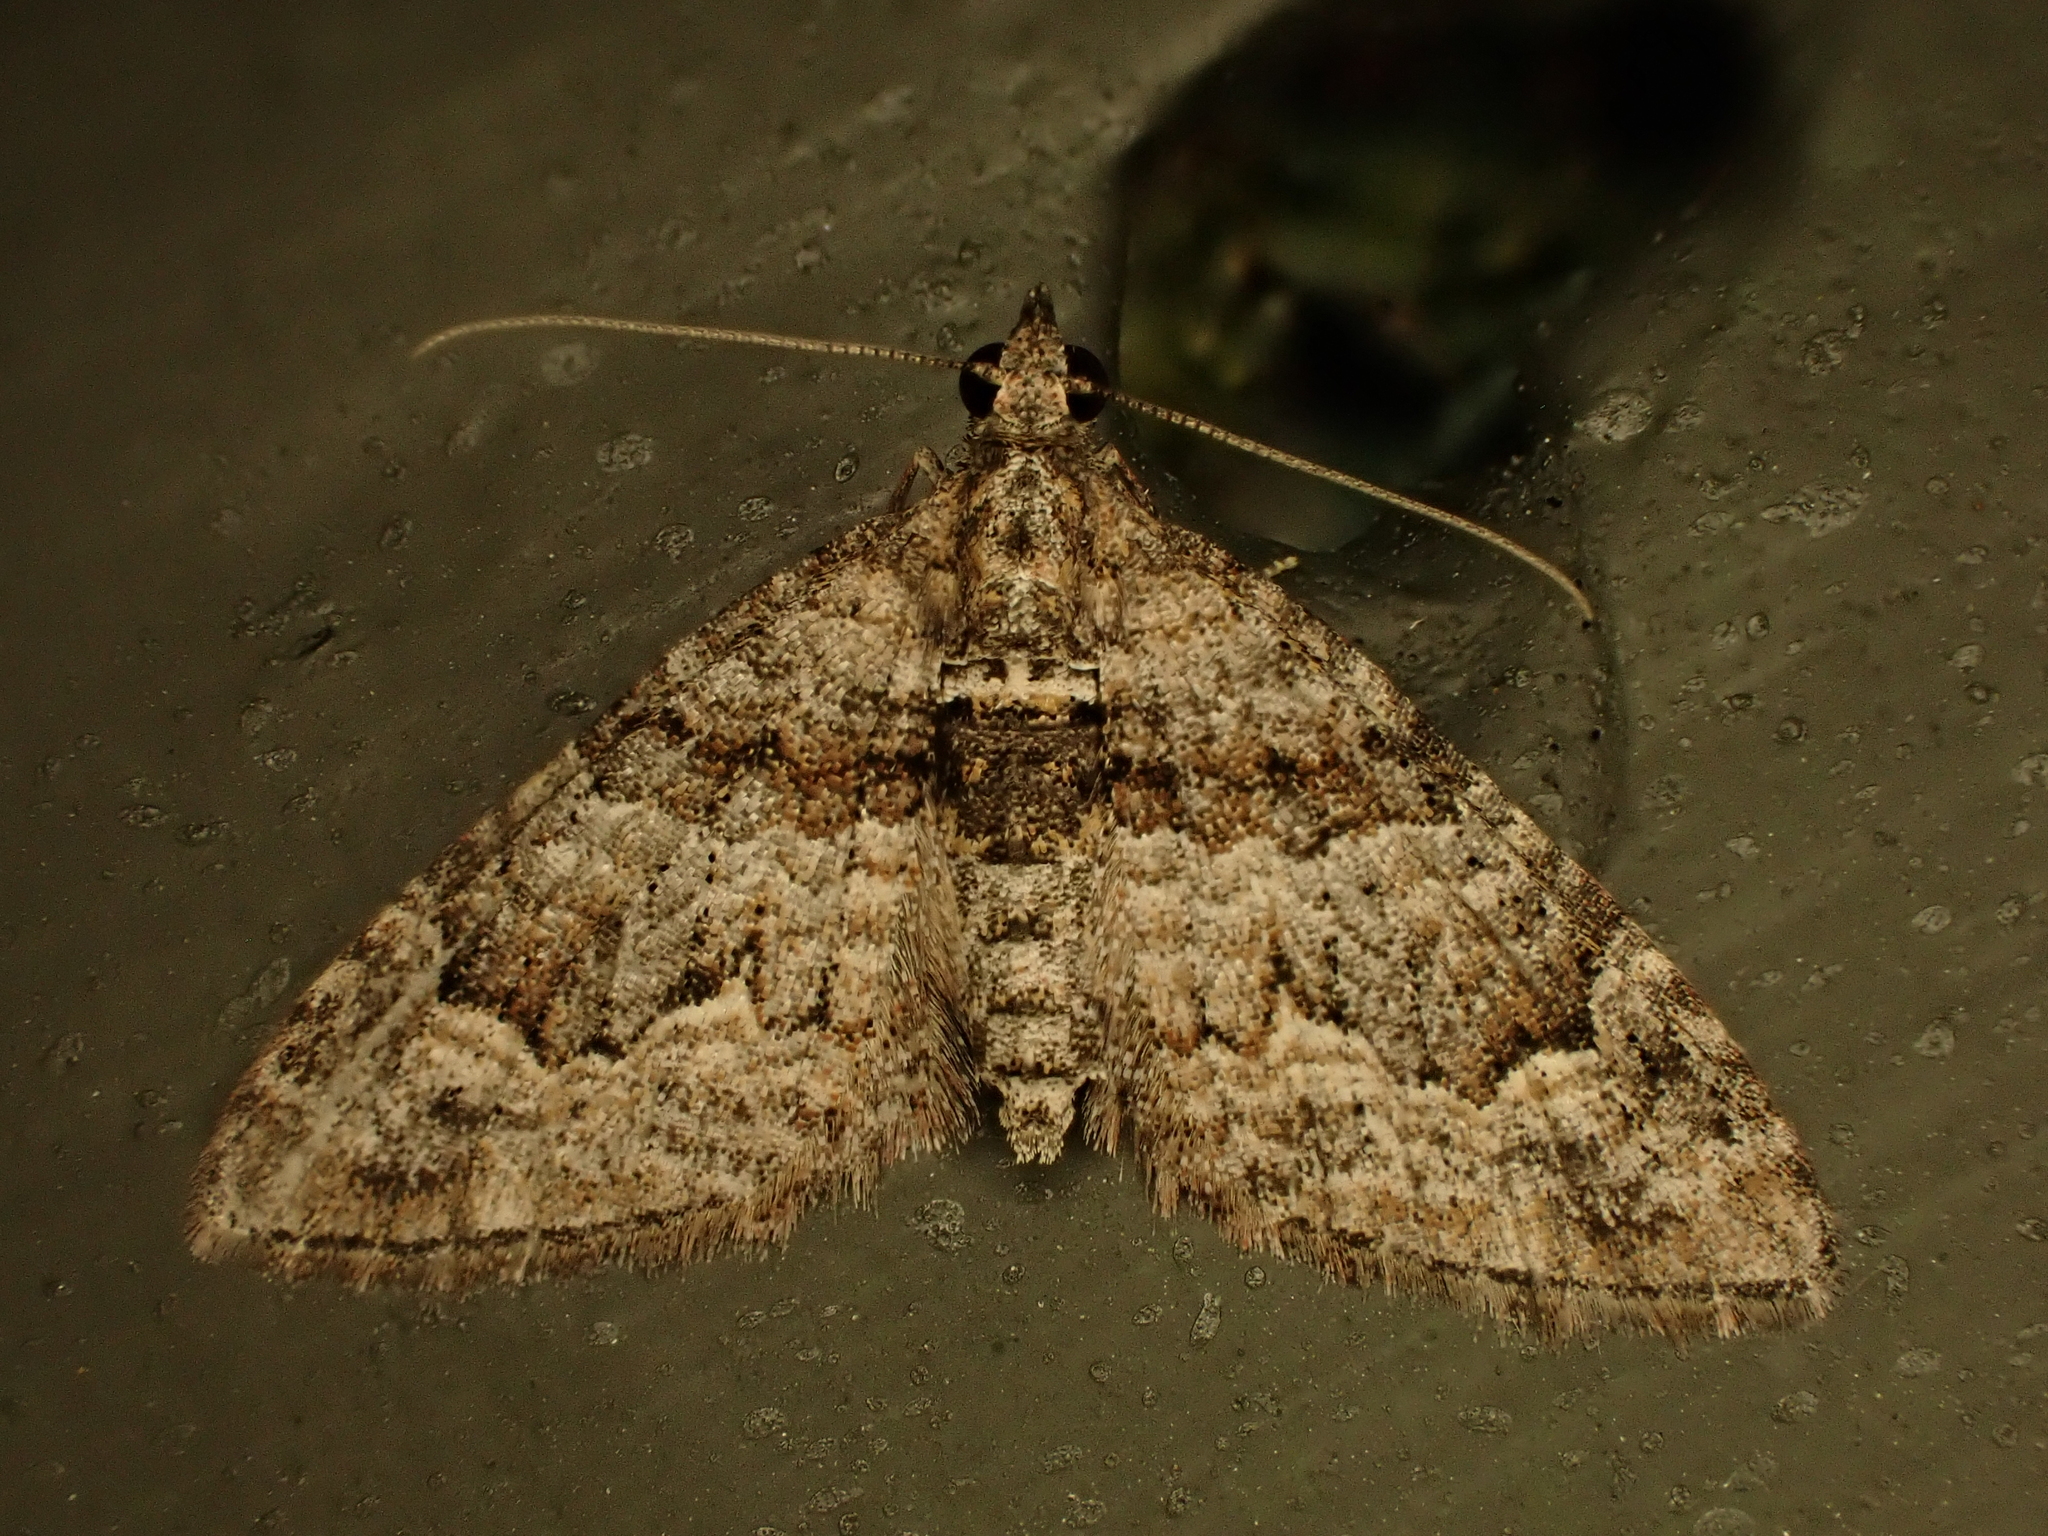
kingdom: Animalia
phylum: Arthropoda
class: Insecta
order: Lepidoptera
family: Geometridae
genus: Phrissogonus
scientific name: Phrissogonus laticostata
